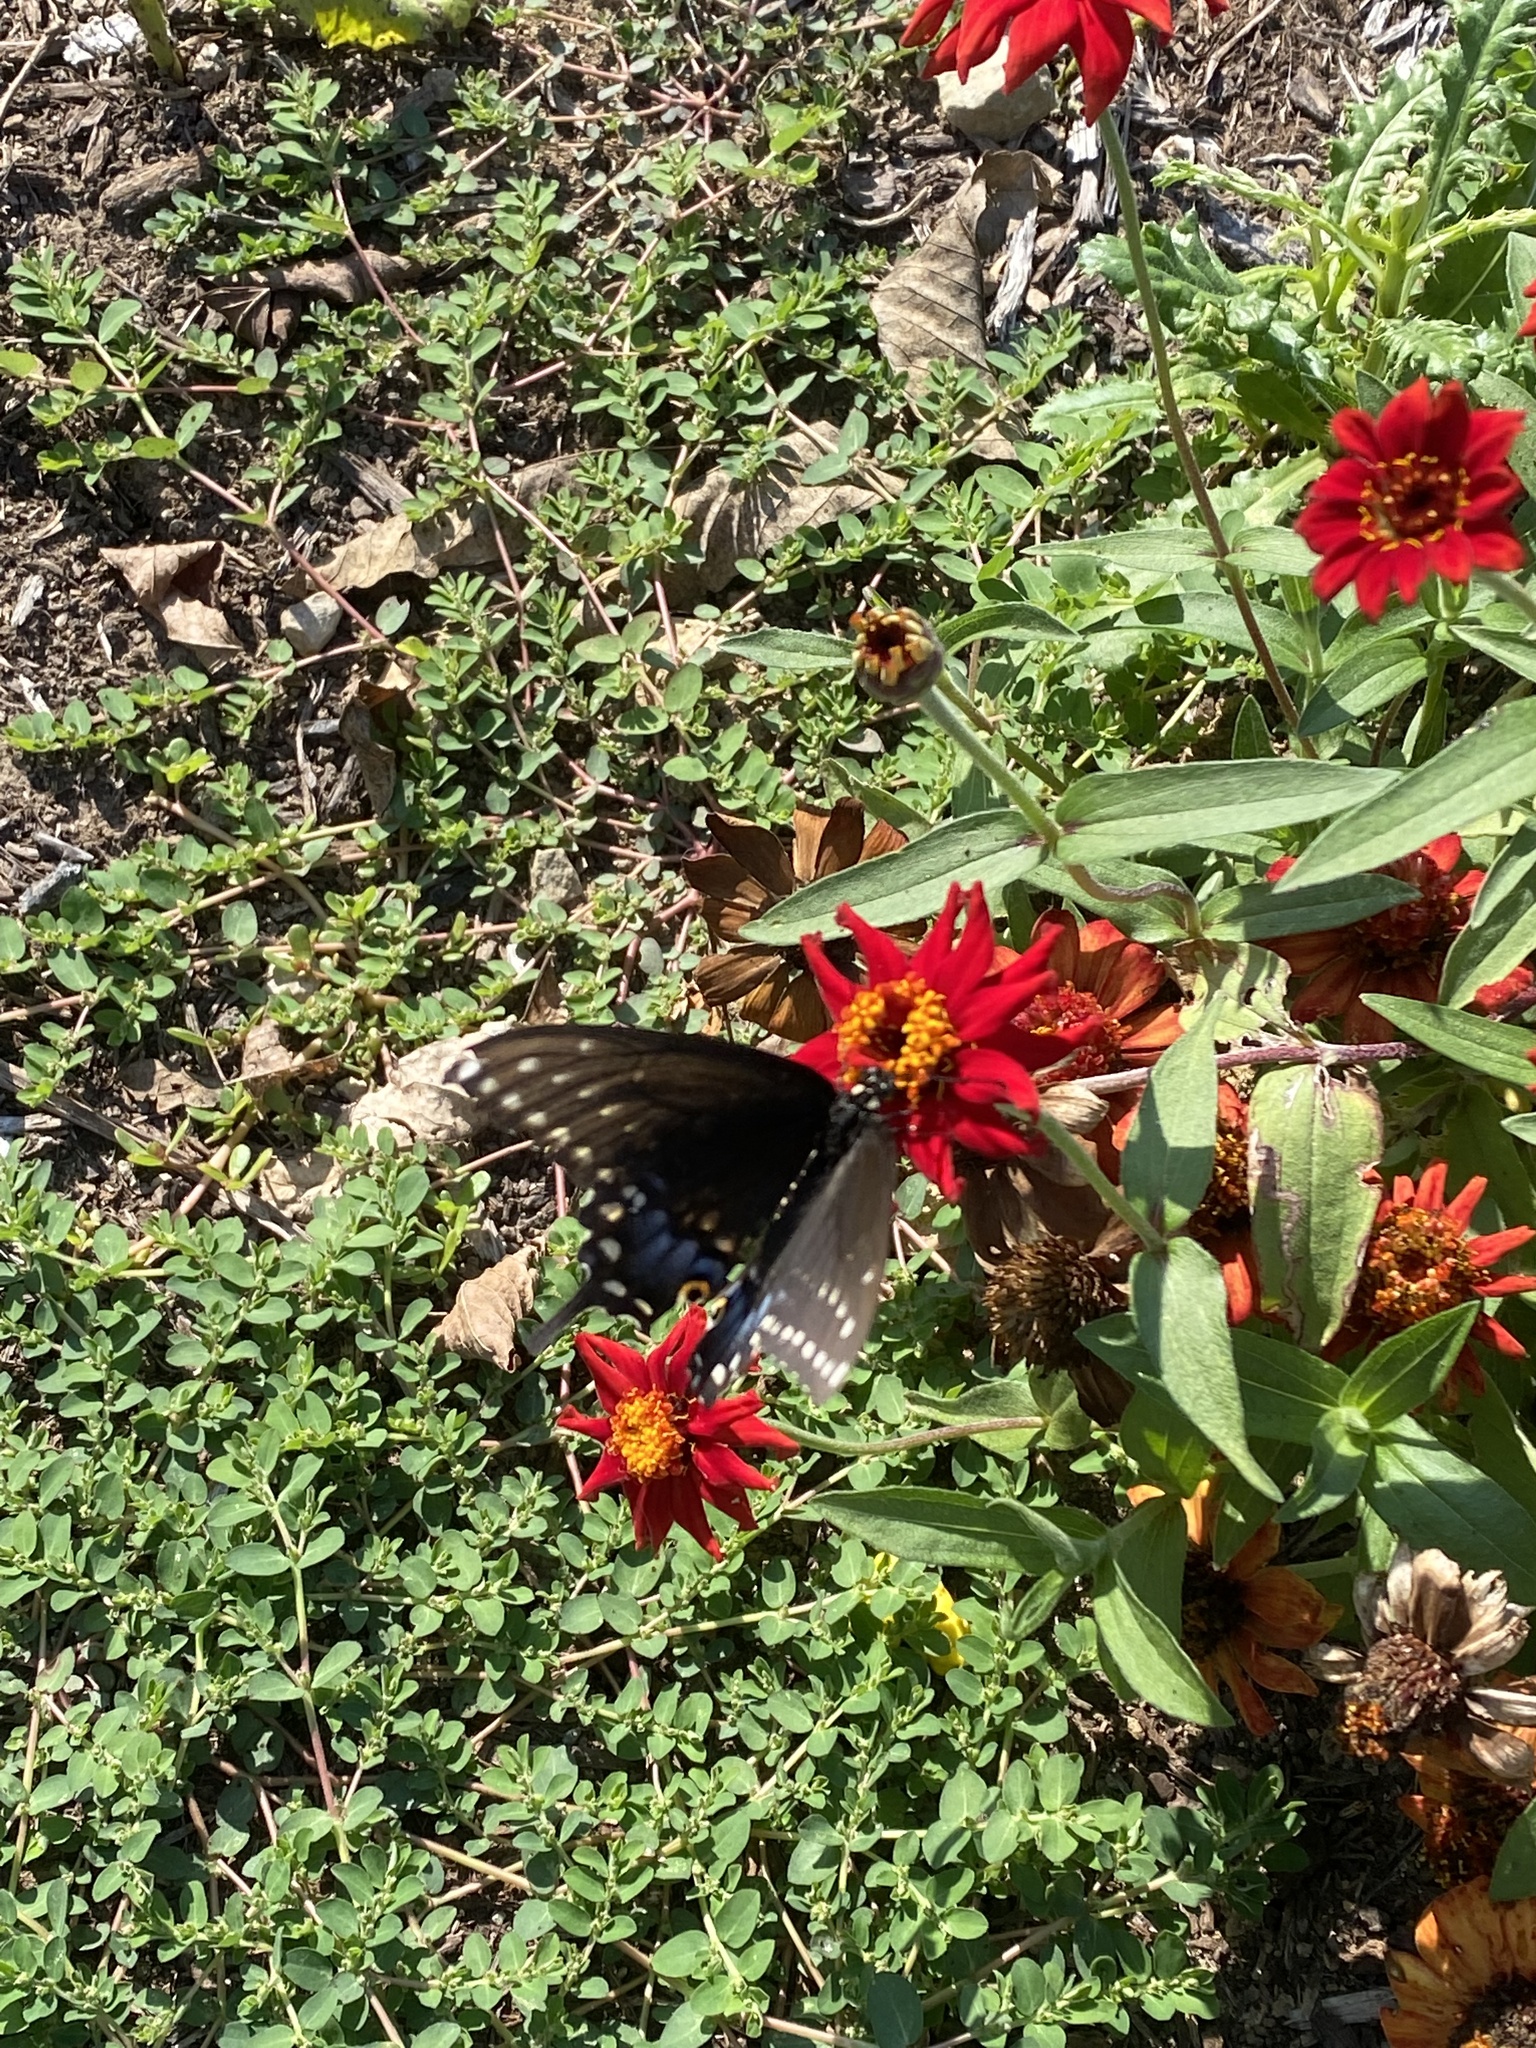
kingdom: Animalia
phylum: Arthropoda
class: Insecta
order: Lepidoptera
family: Papilionidae
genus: Papilio
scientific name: Papilio polyxenes
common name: Black swallowtail
